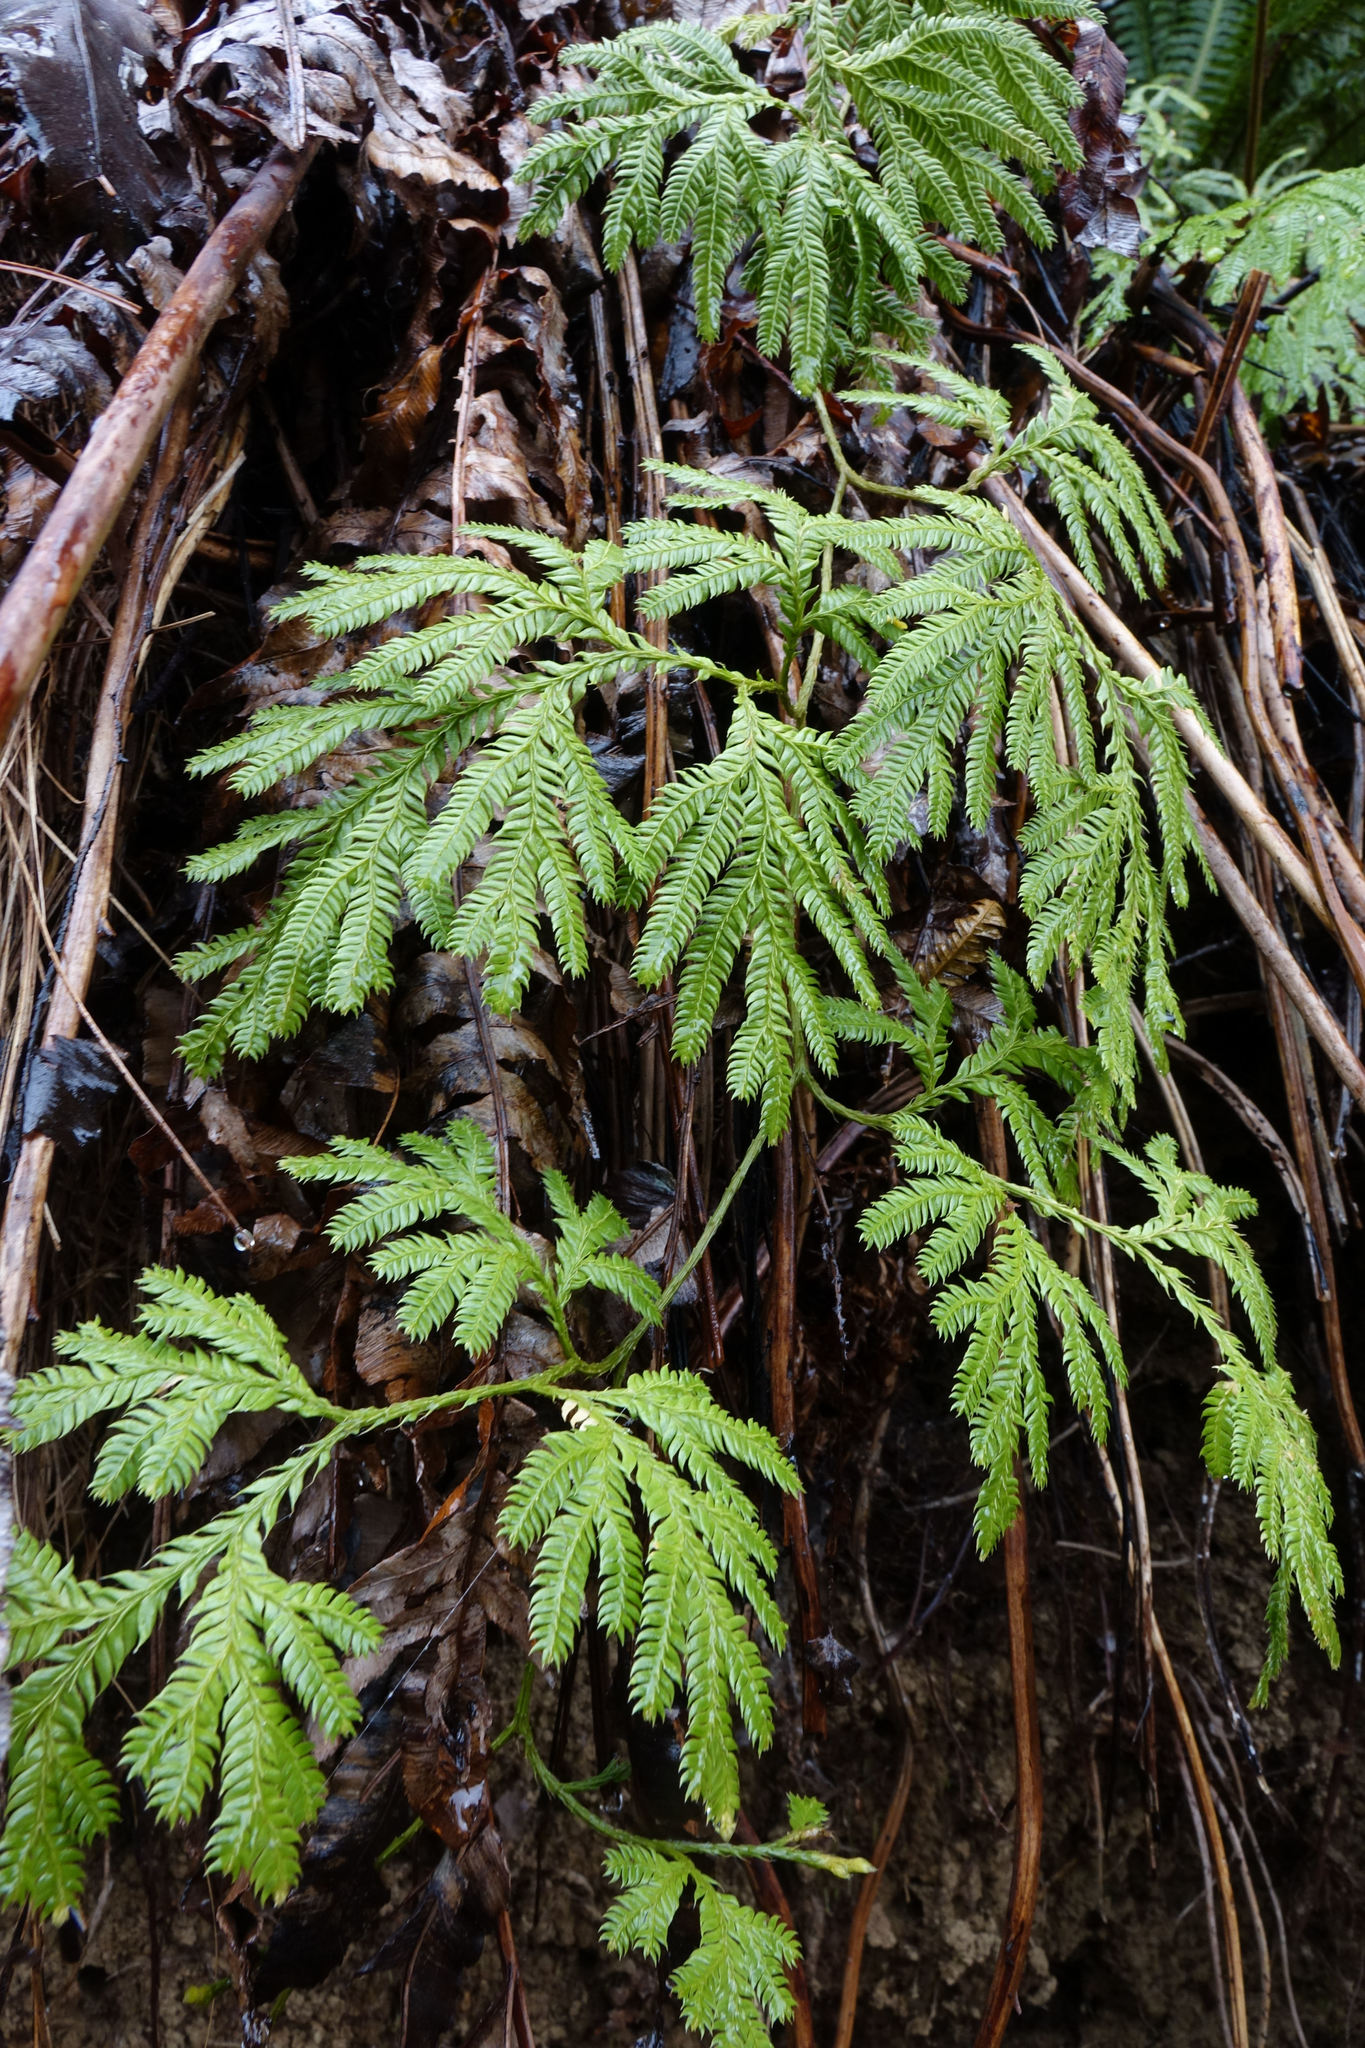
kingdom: Plantae
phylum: Tracheophyta
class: Lycopodiopsida
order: Lycopodiales
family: Lycopodiaceae
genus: Lycopodium
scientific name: Lycopodium volubile
